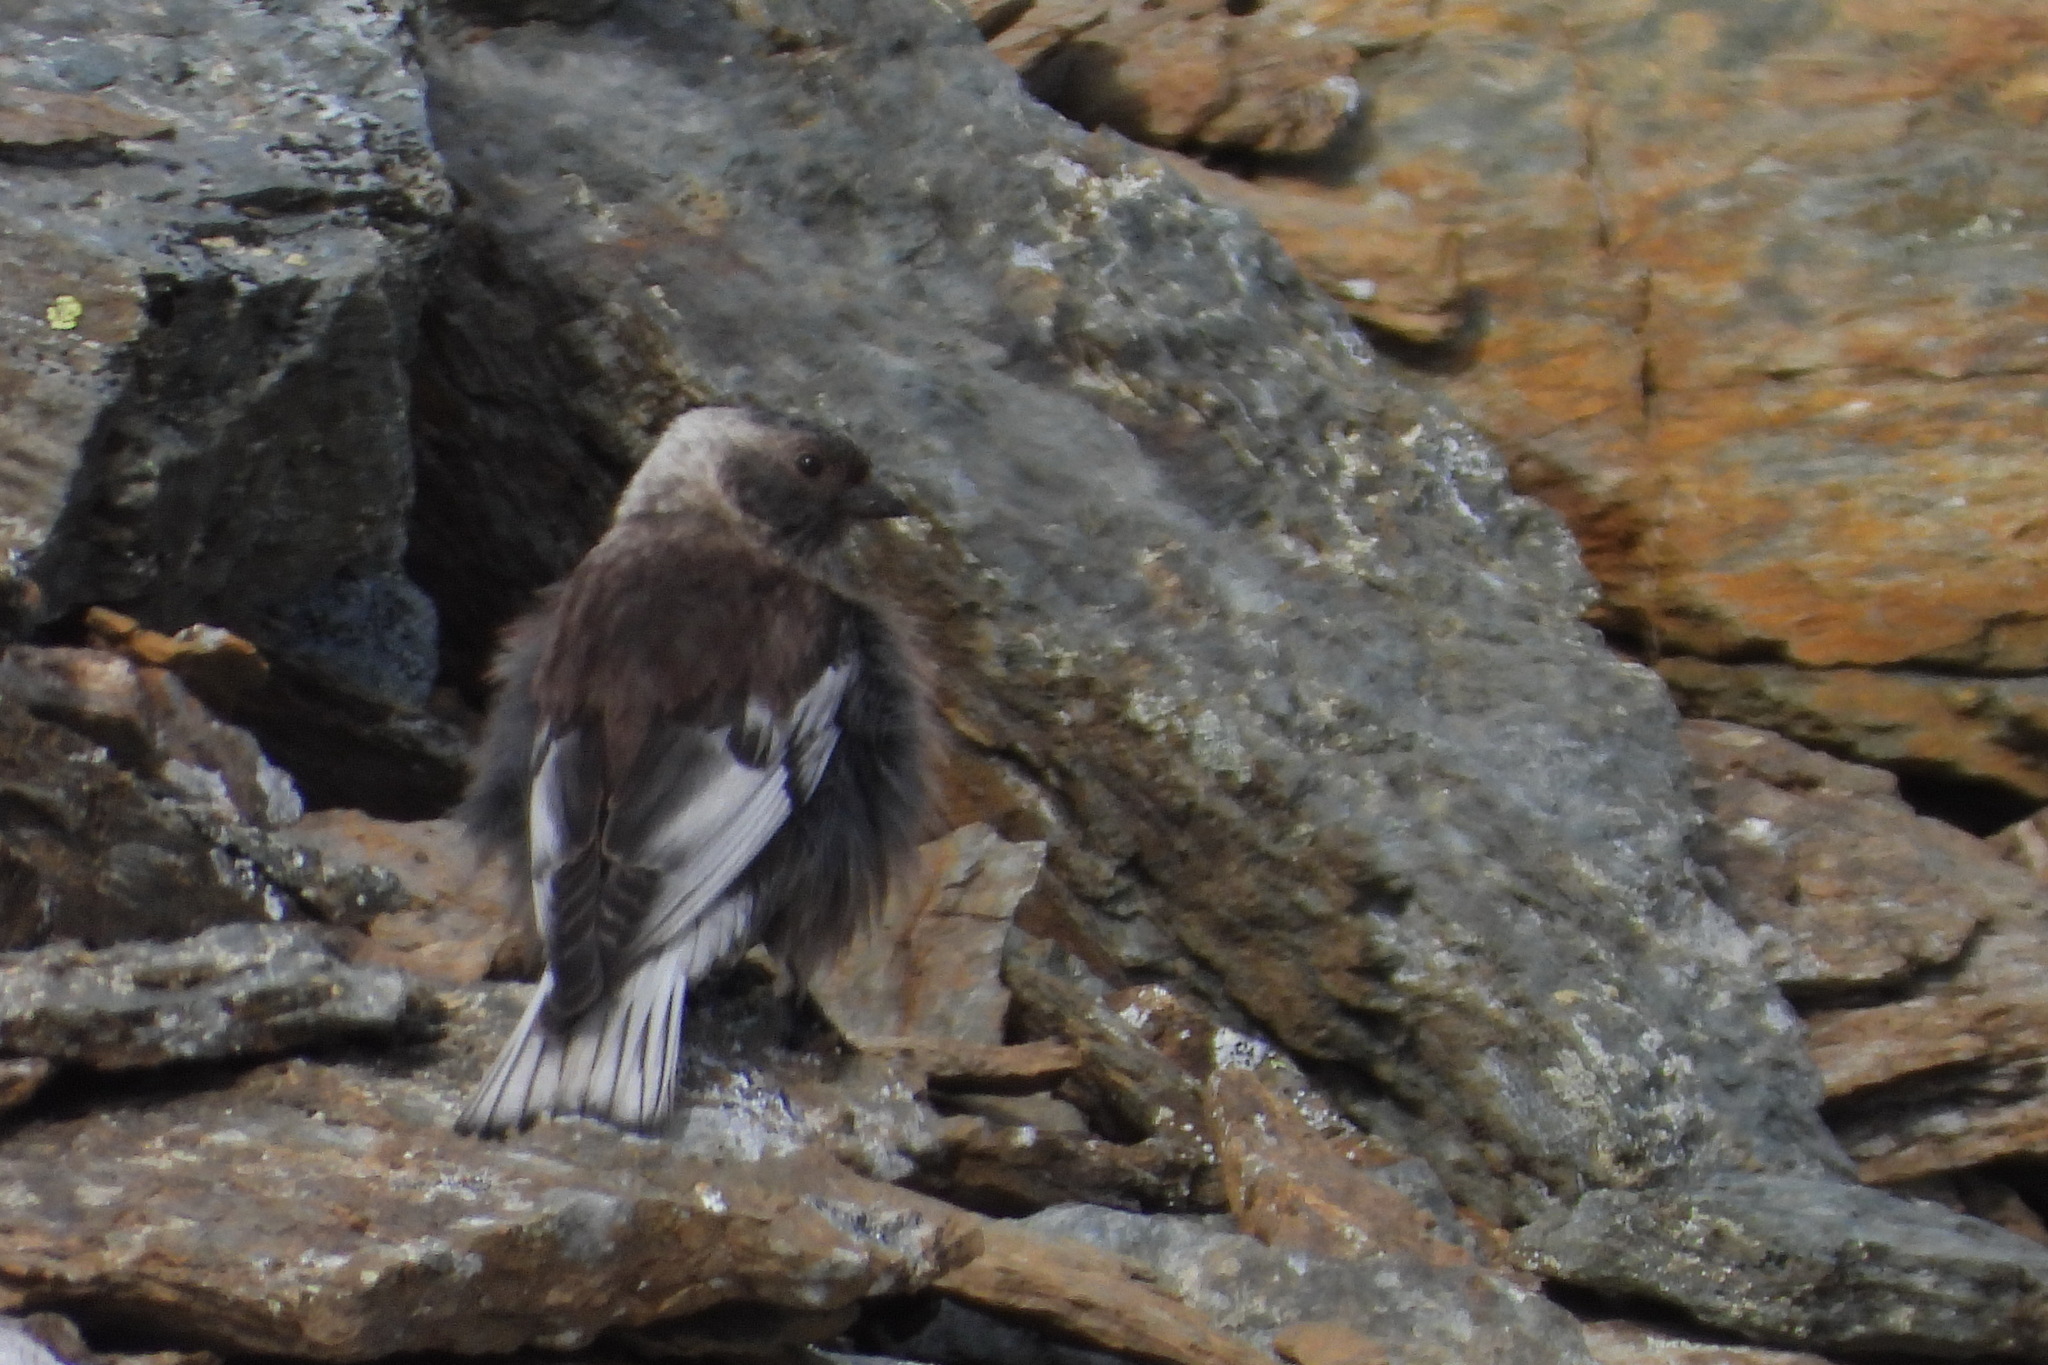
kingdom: Animalia
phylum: Chordata
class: Aves
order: Passeriformes
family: Fringillidae
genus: Leucosticte
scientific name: Leucosticte arctoa
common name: Asian rosy finch
